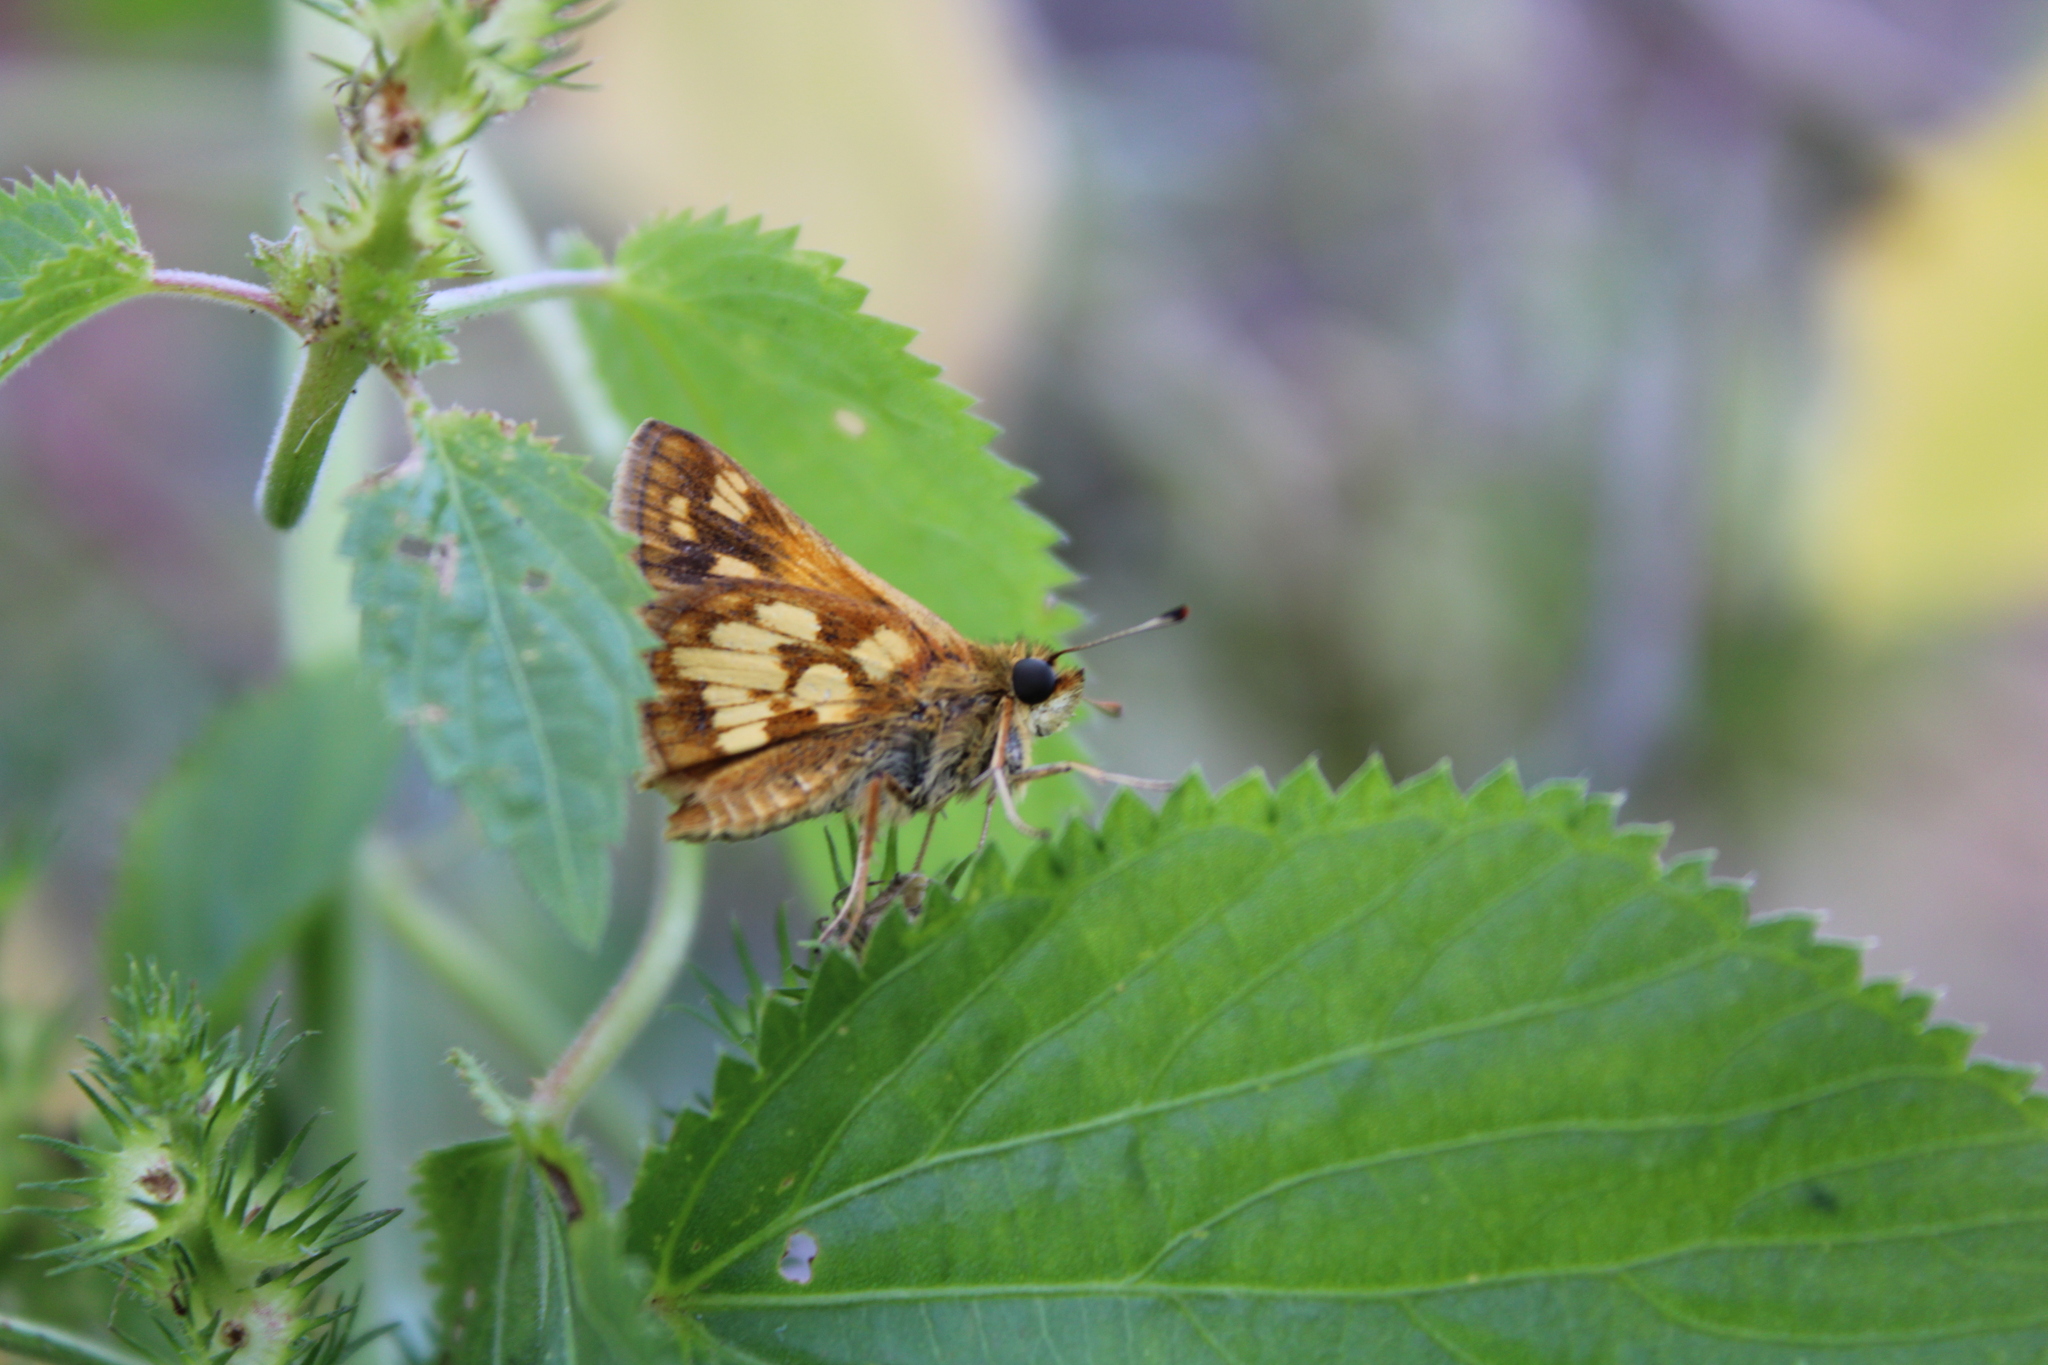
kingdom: Animalia
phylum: Arthropoda
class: Insecta
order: Lepidoptera
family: Hesperiidae
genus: Polites
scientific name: Polites coras
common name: Peck's skipper
